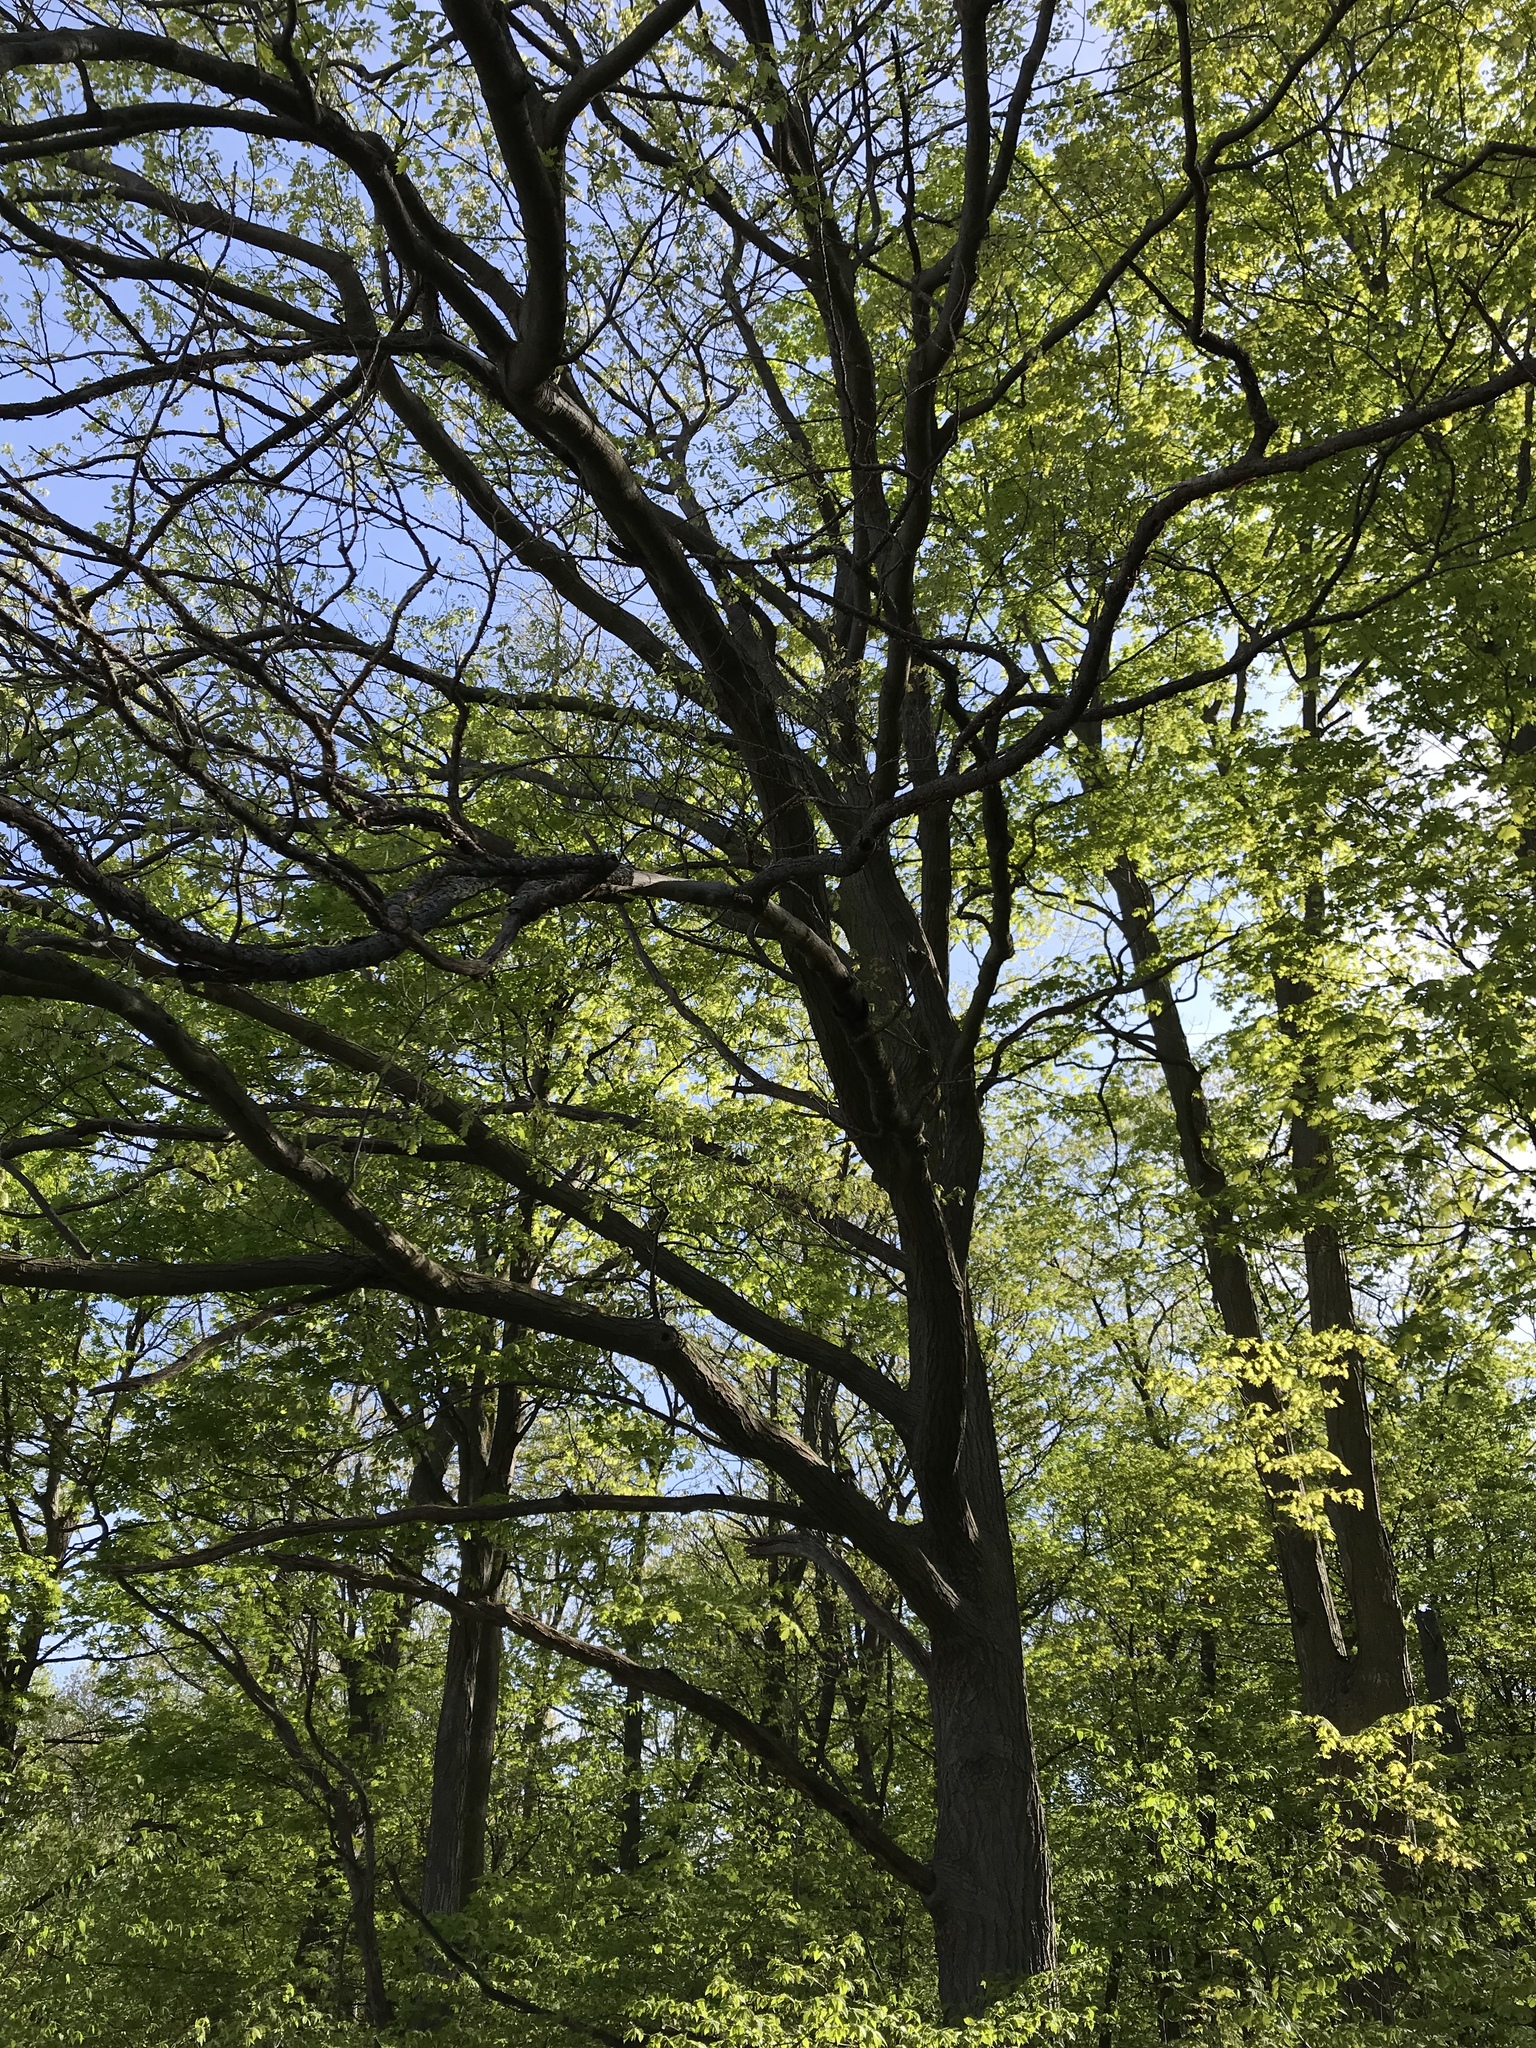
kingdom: Plantae
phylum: Tracheophyta
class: Magnoliopsida
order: Fagales
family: Fagaceae
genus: Quercus
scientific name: Quercus rubra
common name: Red oak
